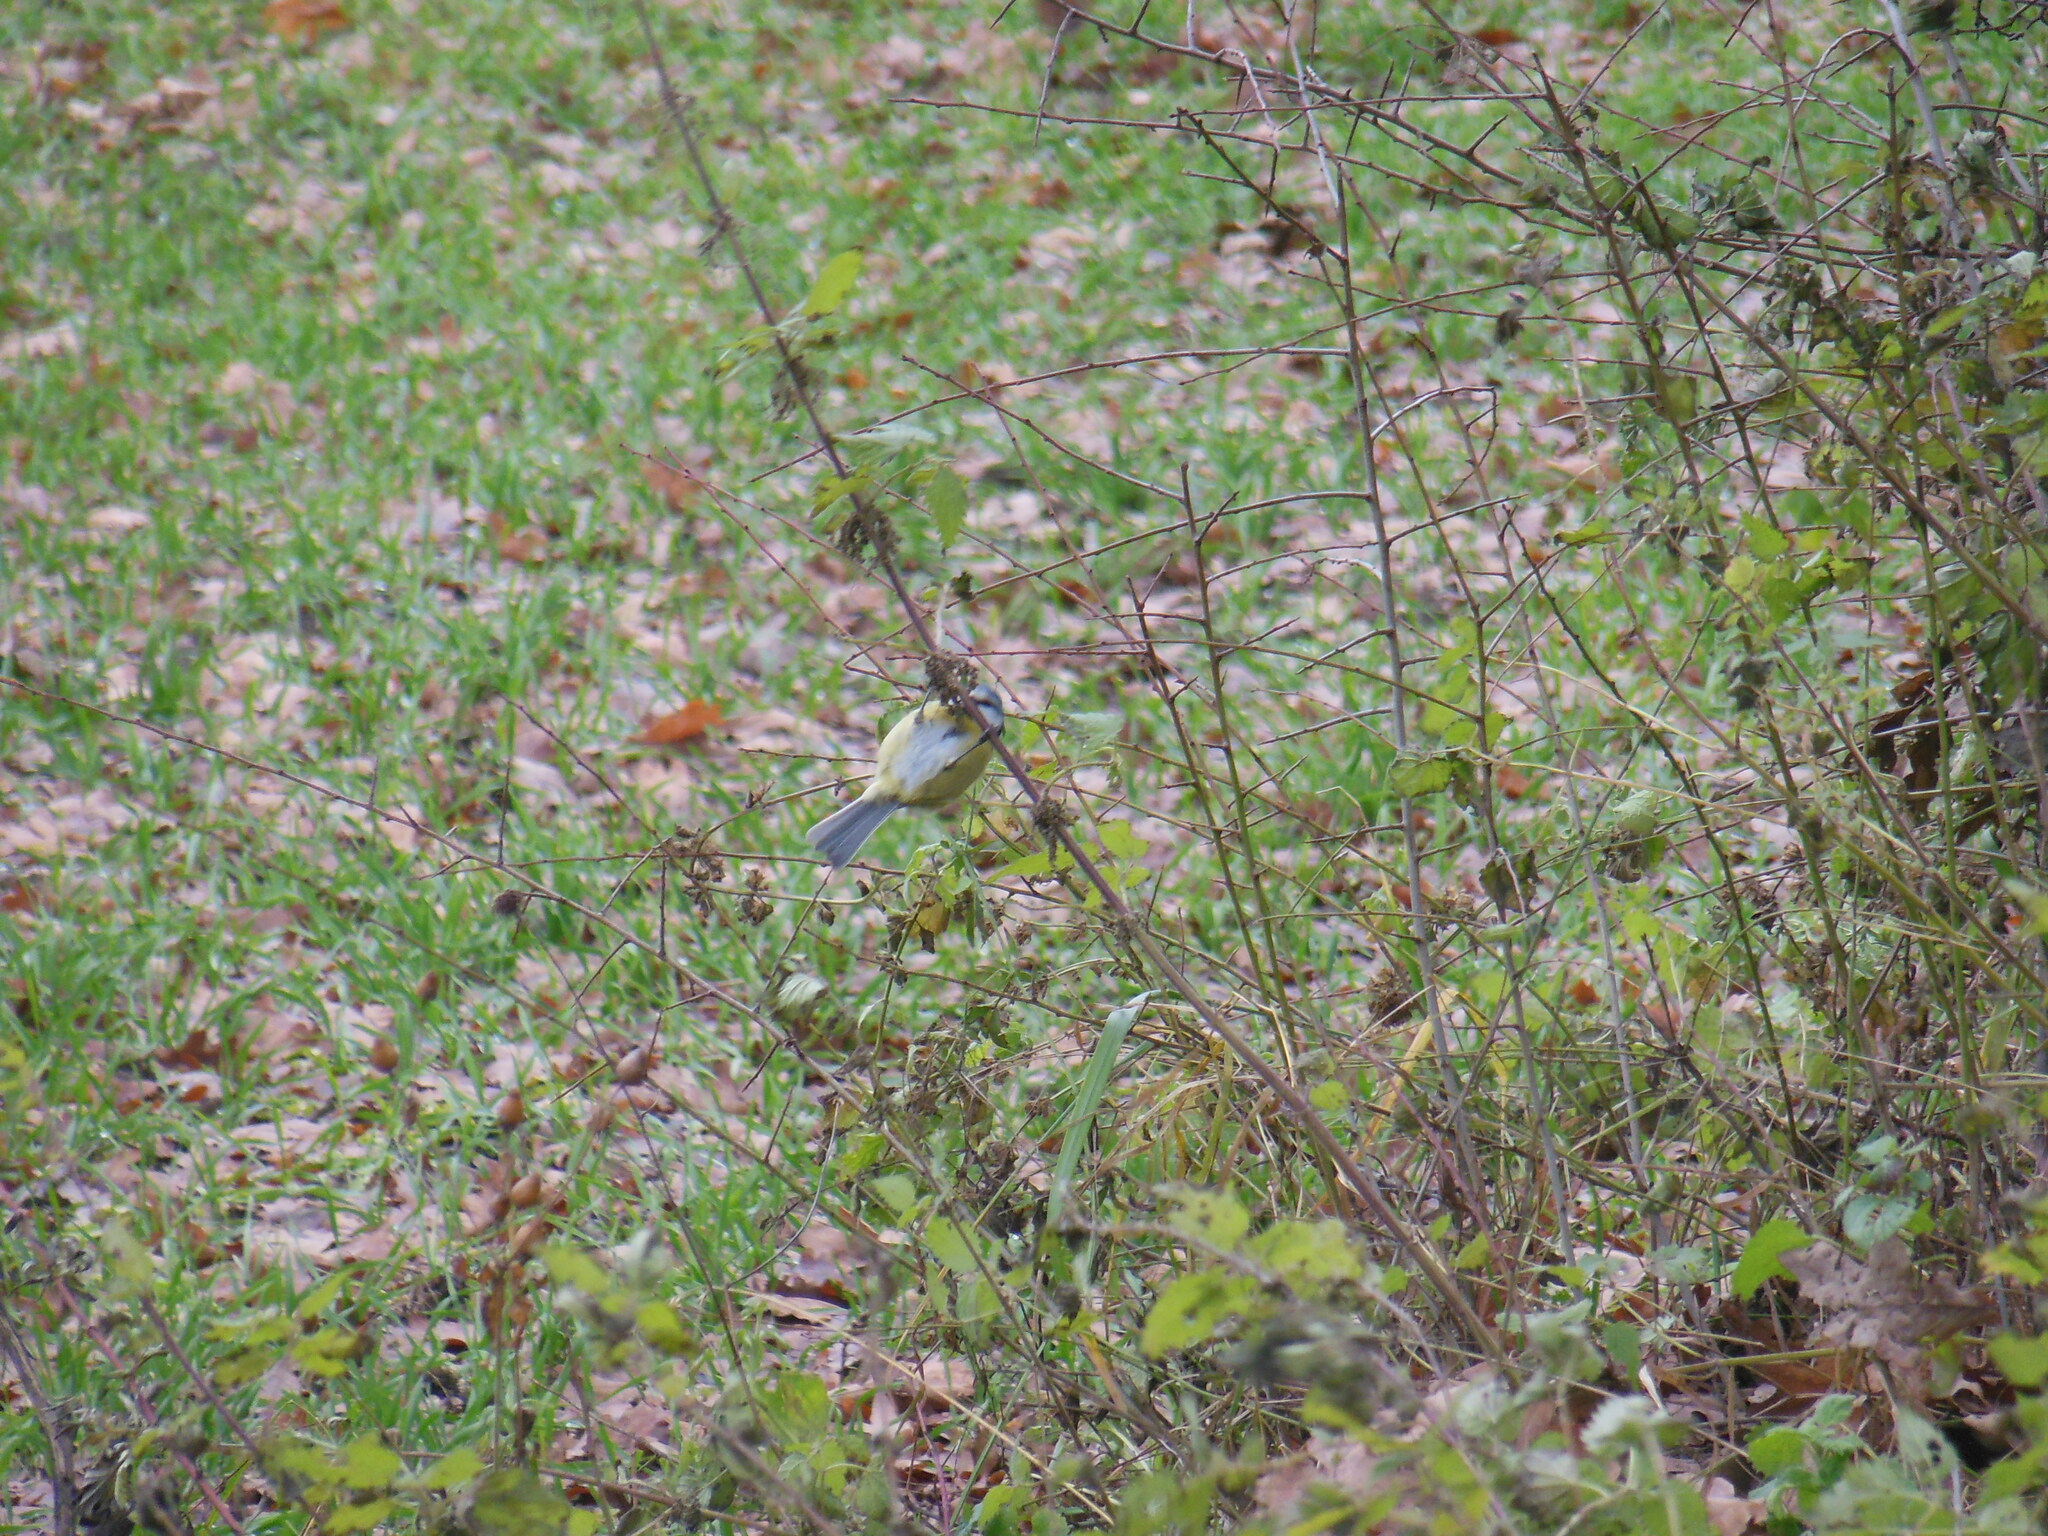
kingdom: Animalia
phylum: Chordata
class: Aves
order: Passeriformes
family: Paridae
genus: Cyanistes
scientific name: Cyanistes caeruleus
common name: Eurasian blue tit
